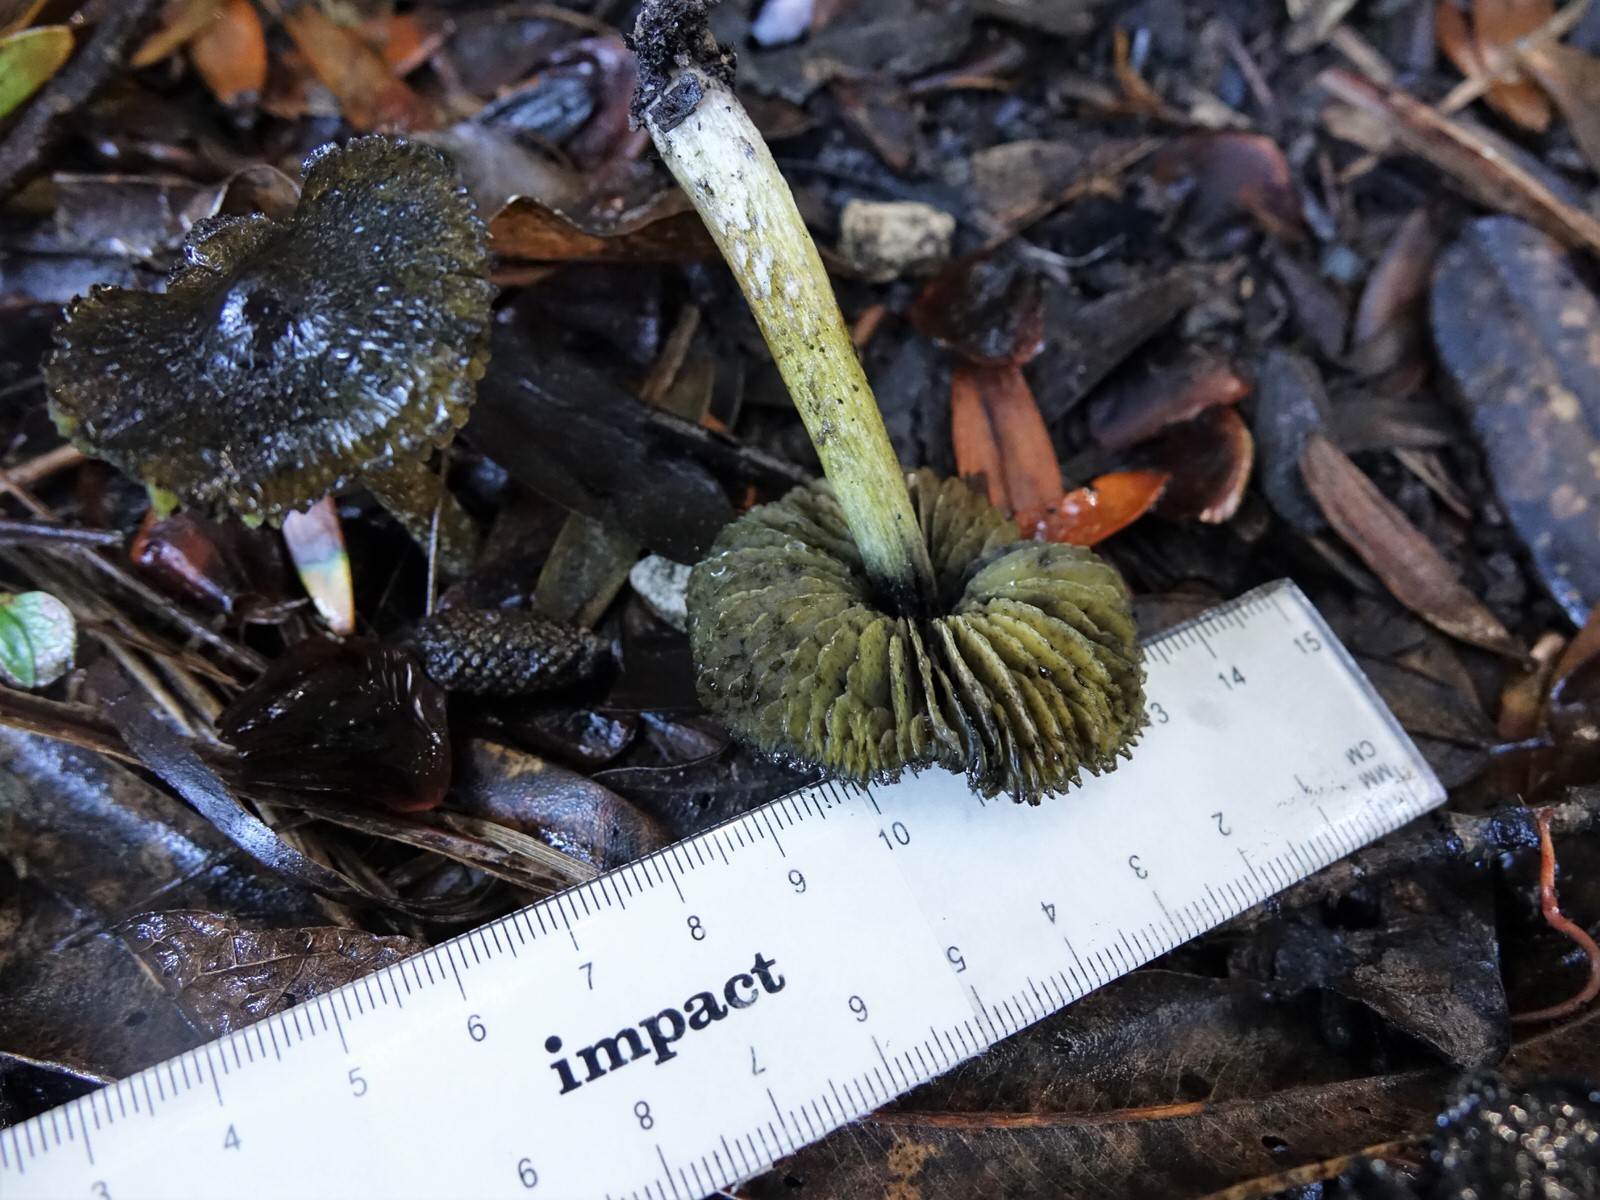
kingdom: Fungi
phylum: Basidiomycota
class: Agaricomycetes
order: Agaricales
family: Hygrophoraceae
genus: Hygrocybe
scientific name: Hygrocybe astatogala
